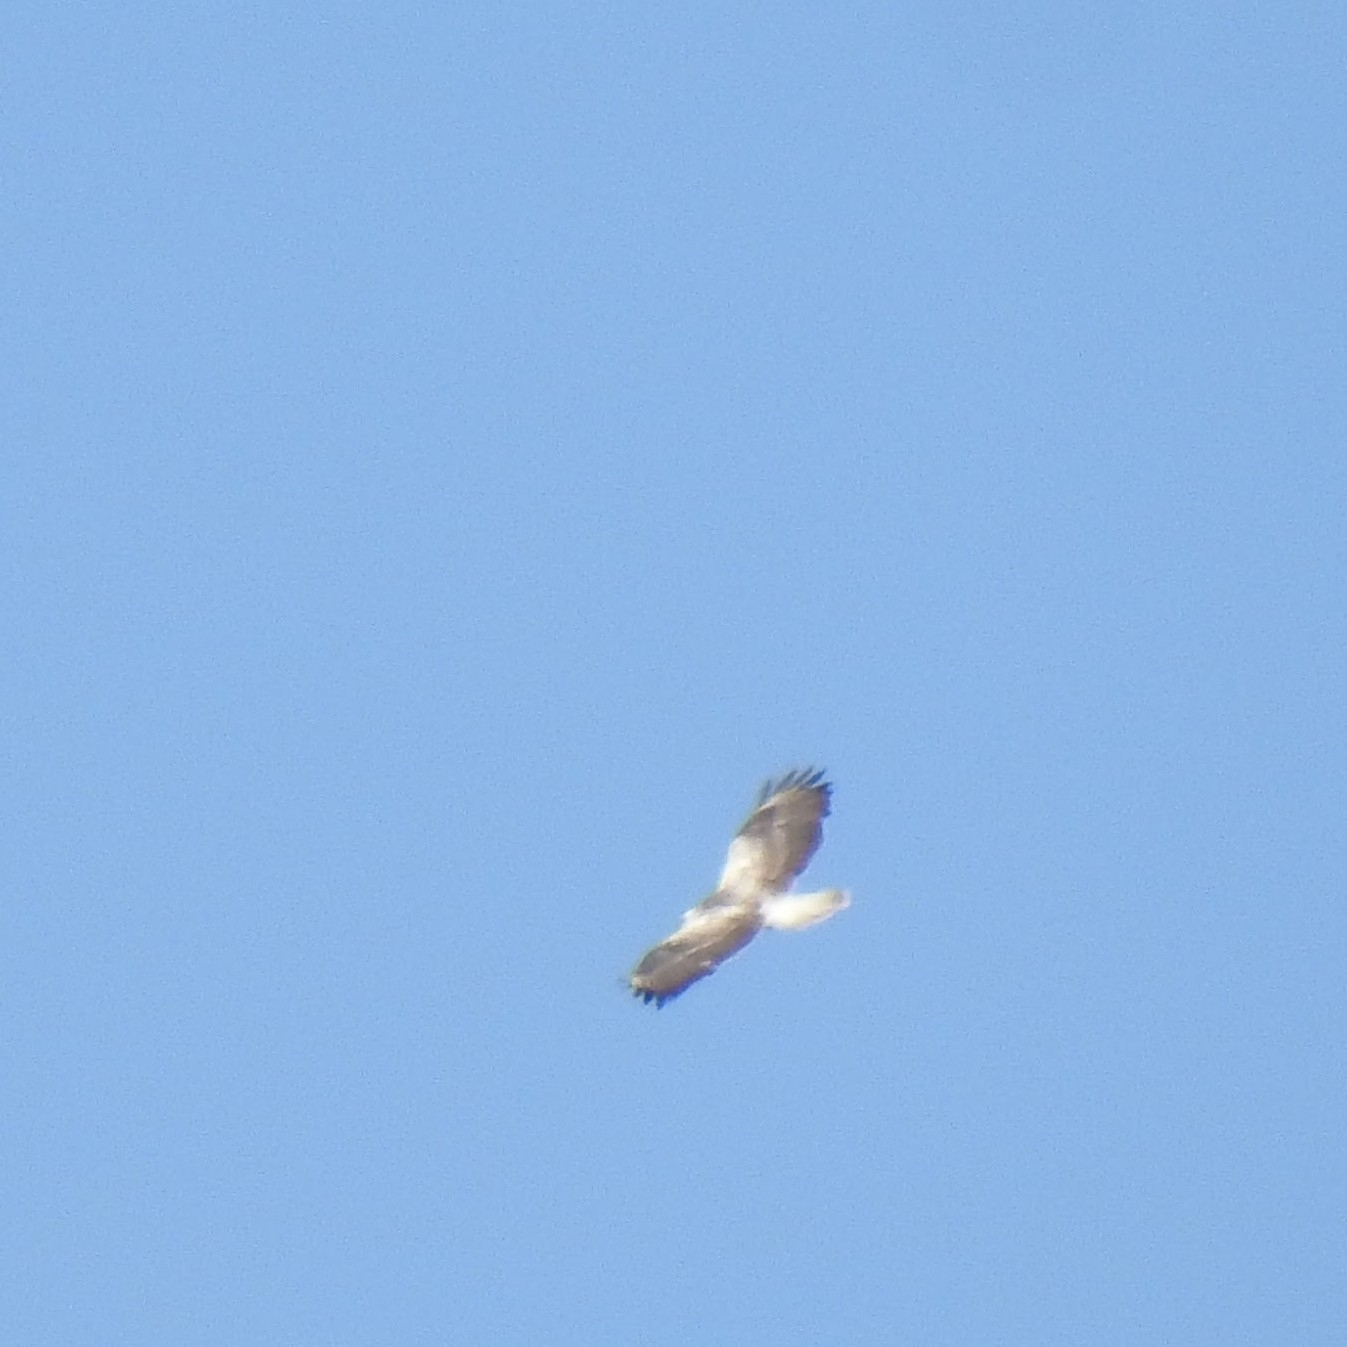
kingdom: Animalia
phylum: Chordata
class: Aves
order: Accipitriformes
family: Accipitridae
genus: Buteo
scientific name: Buteo buteo
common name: Common buzzard
